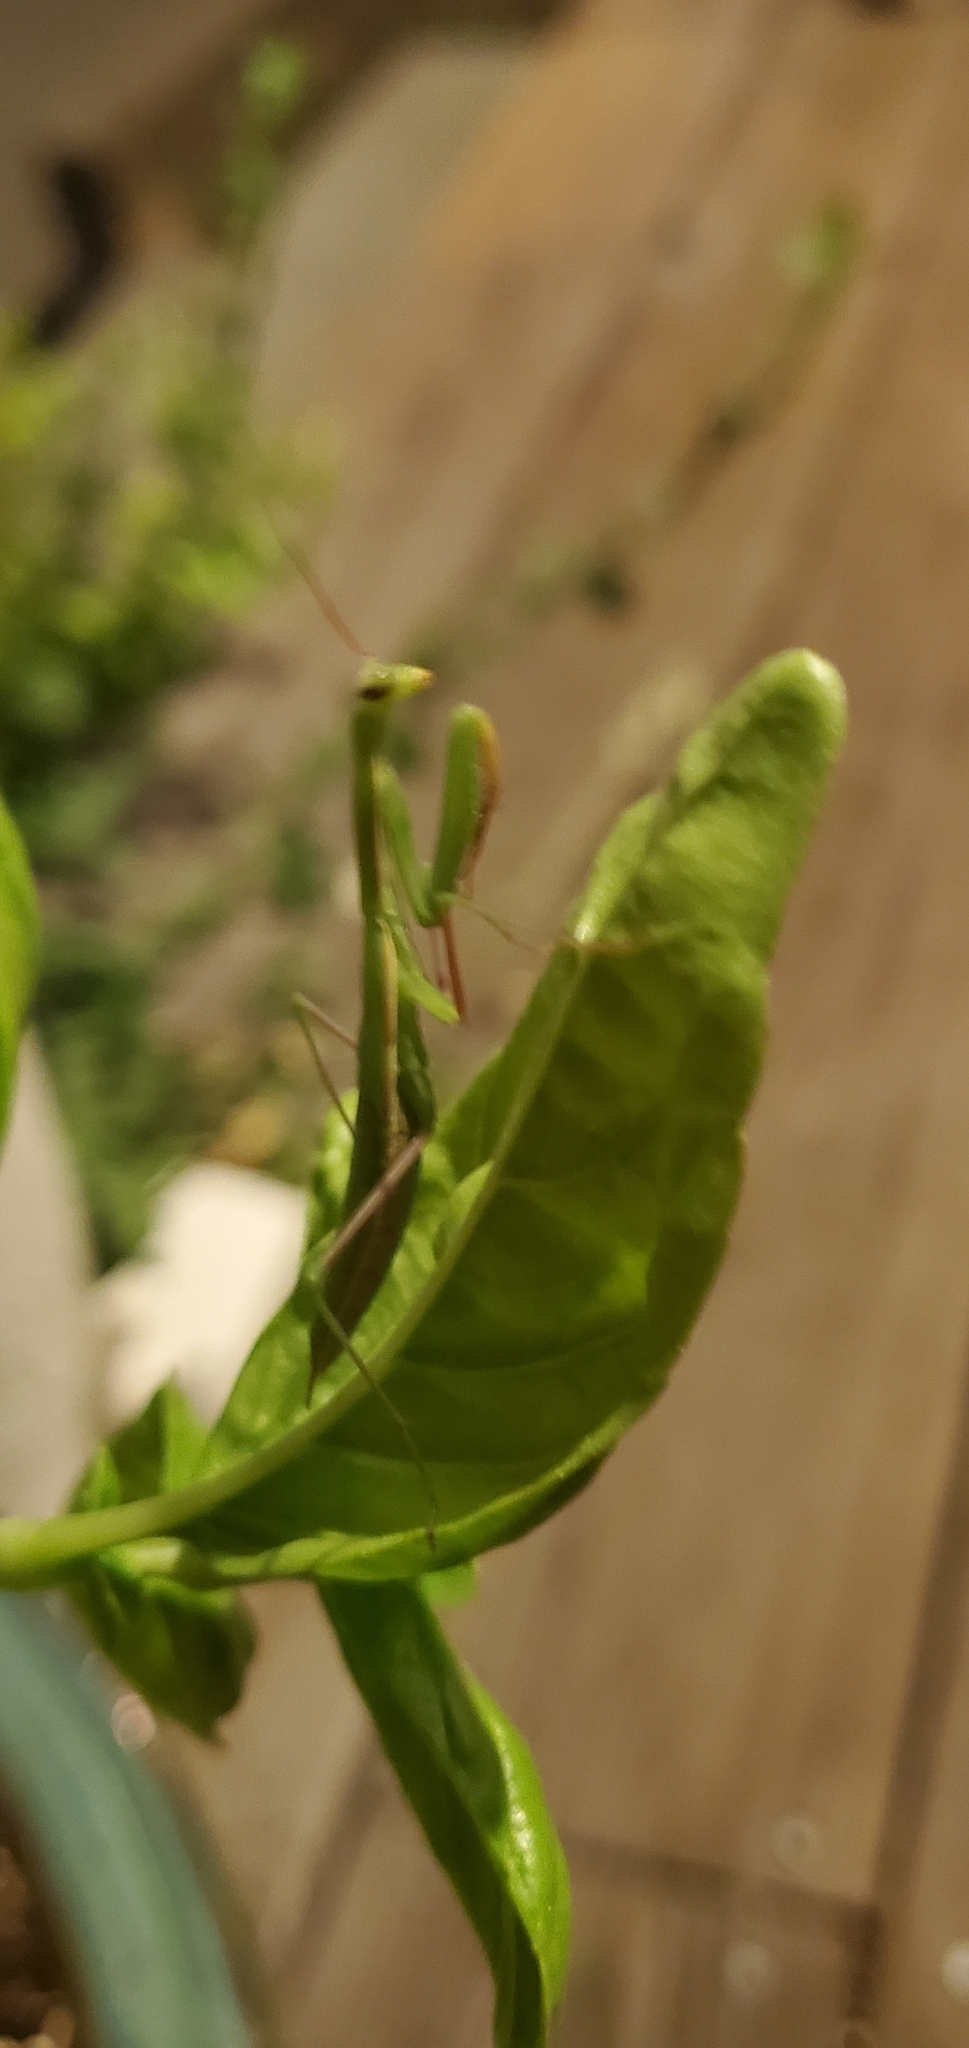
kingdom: Animalia
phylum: Arthropoda
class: Insecta
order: Mantodea
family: Mantidae
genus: Mantis
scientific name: Mantis religiosa
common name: Praying mantis
